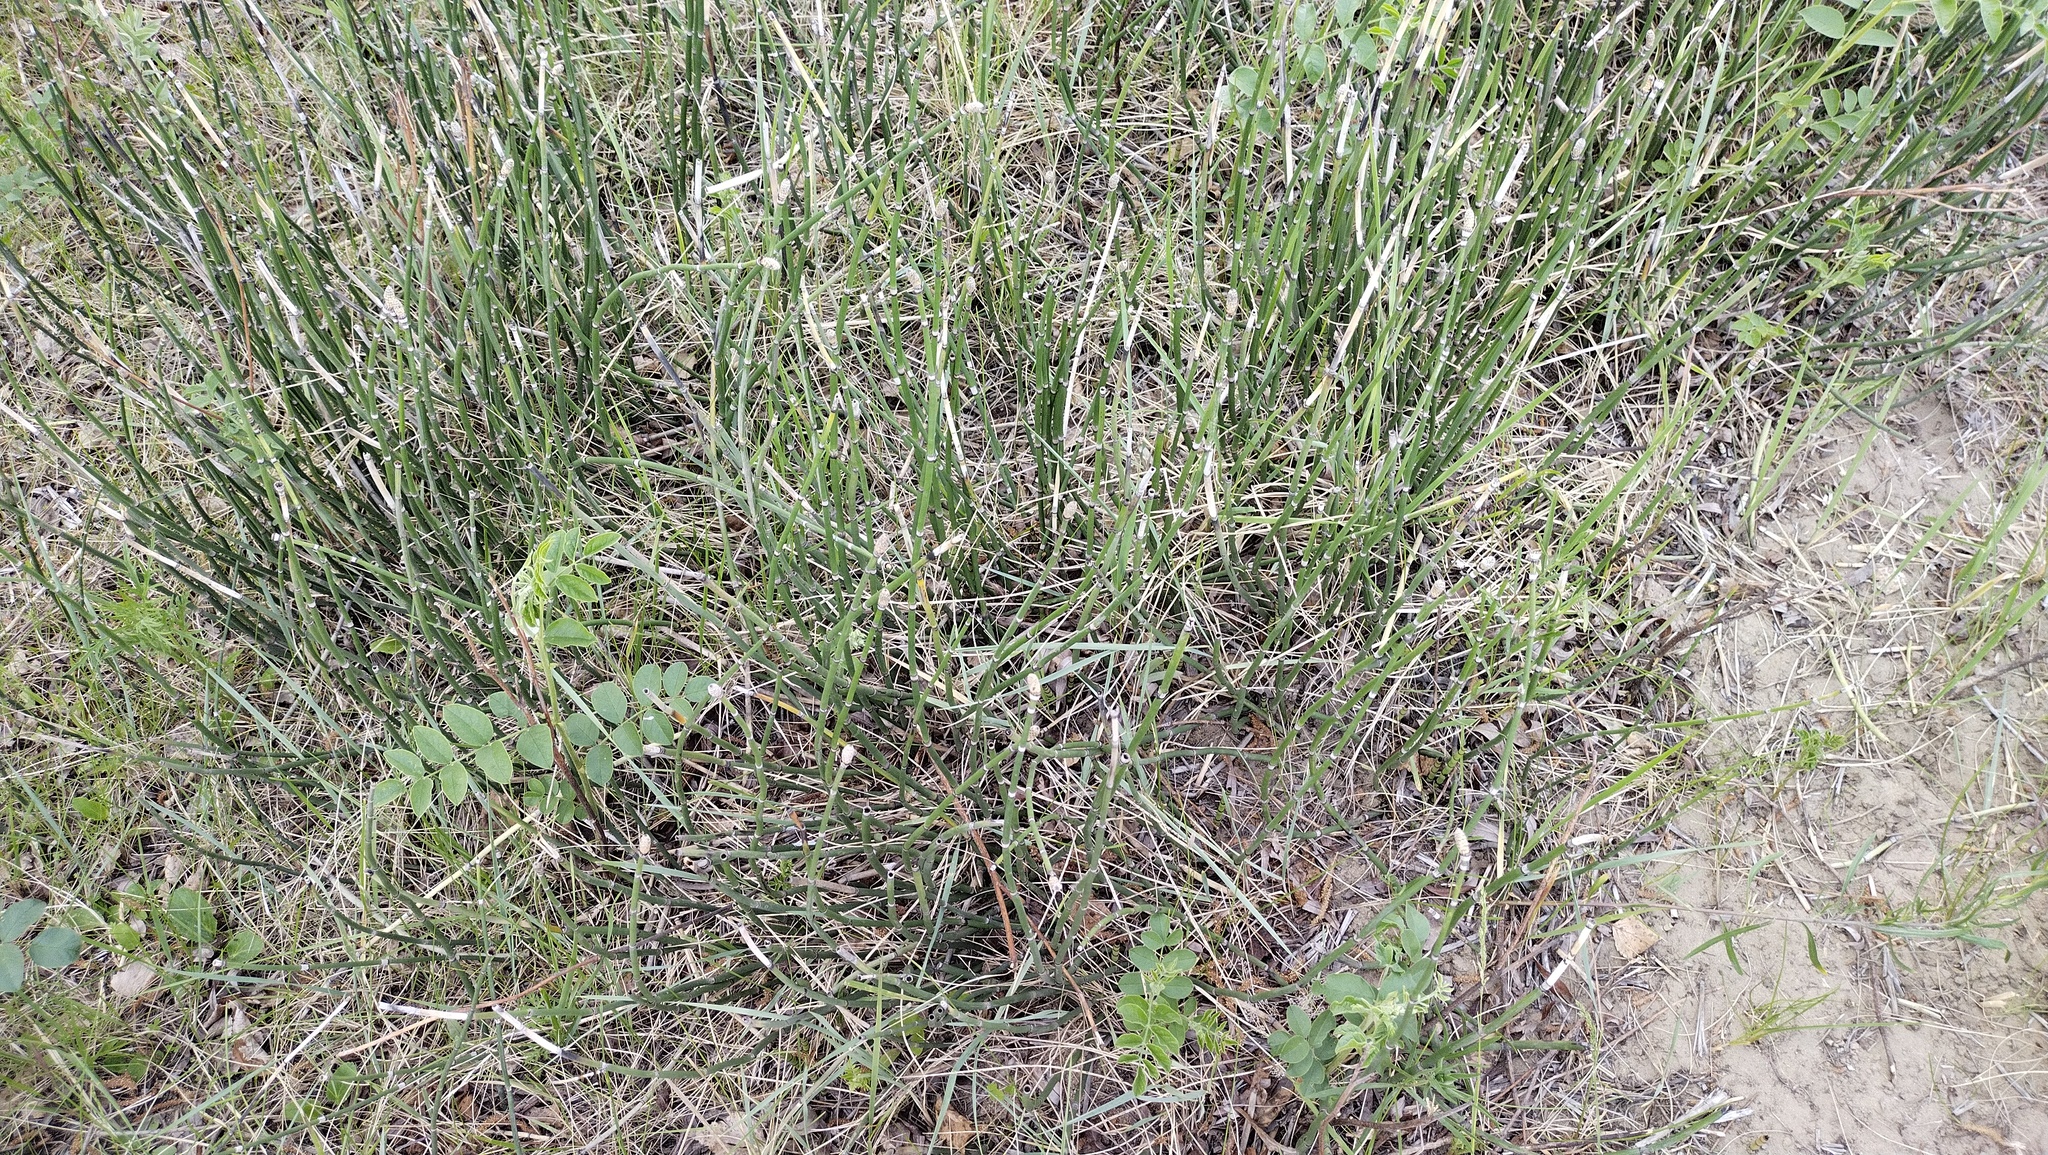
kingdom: Plantae
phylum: Tracheophyta
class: Polypodiopsida
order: Equisetales
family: Equisetaceae
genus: Equisetum
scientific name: Equisetum hyemale
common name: Rough horsetail
